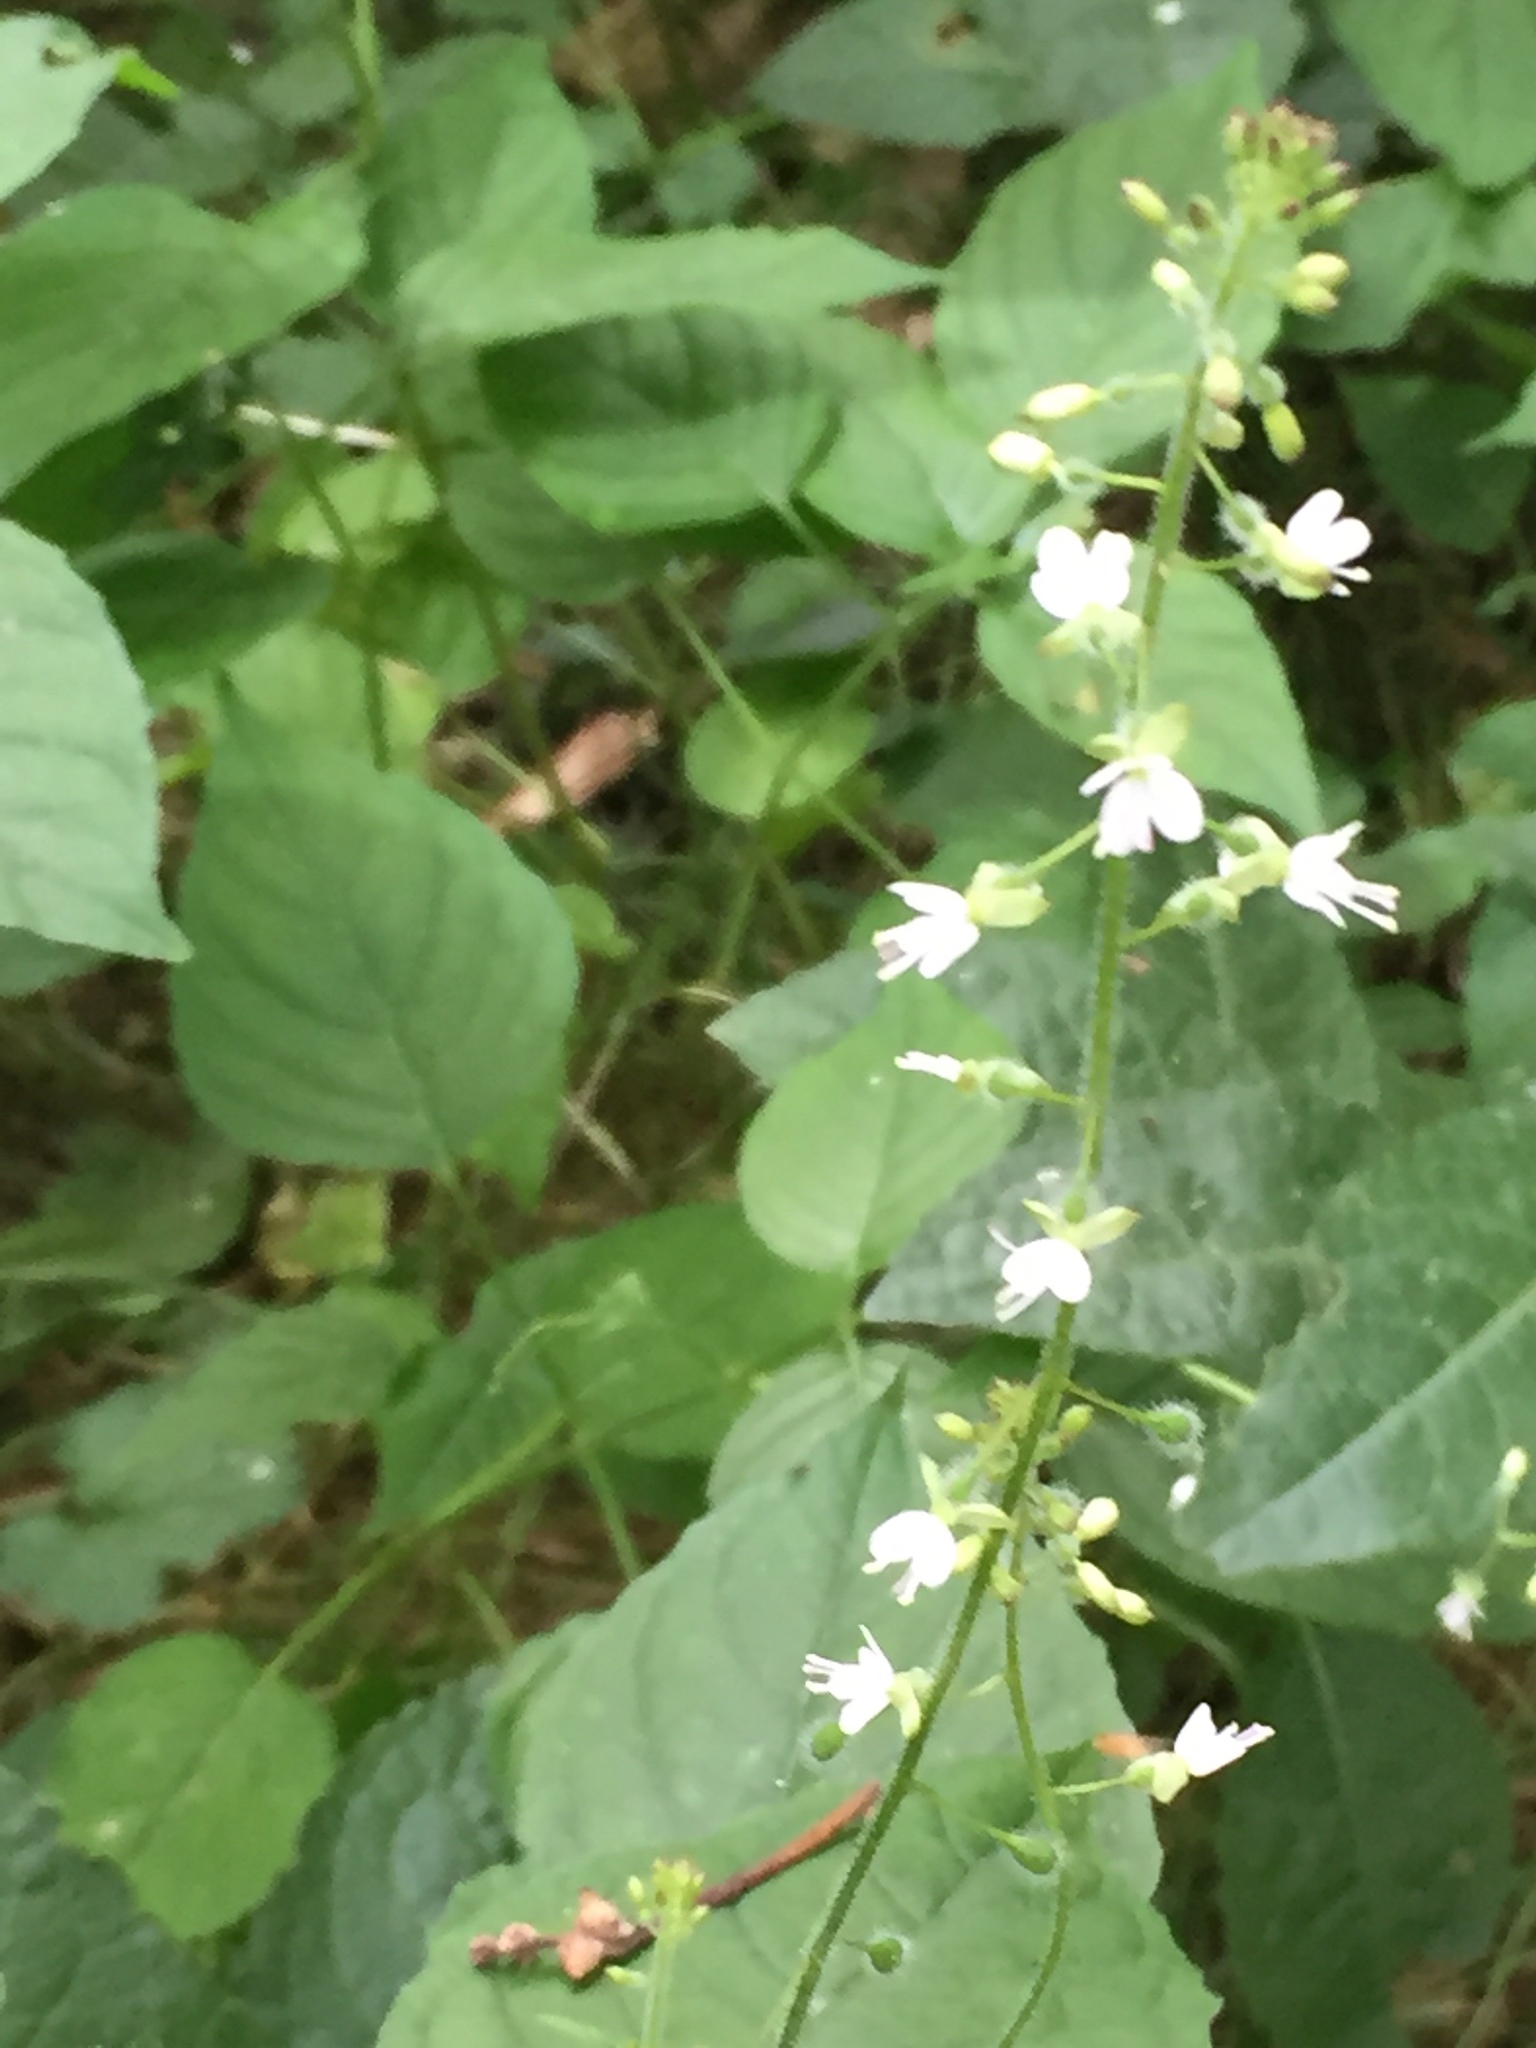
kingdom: Plantae
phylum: Tracheophyta
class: Magnoliopsida
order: Myrtales
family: Onagraceae
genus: Circaea
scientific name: Circaea lutetiana
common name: Enchanter's-nightshade
